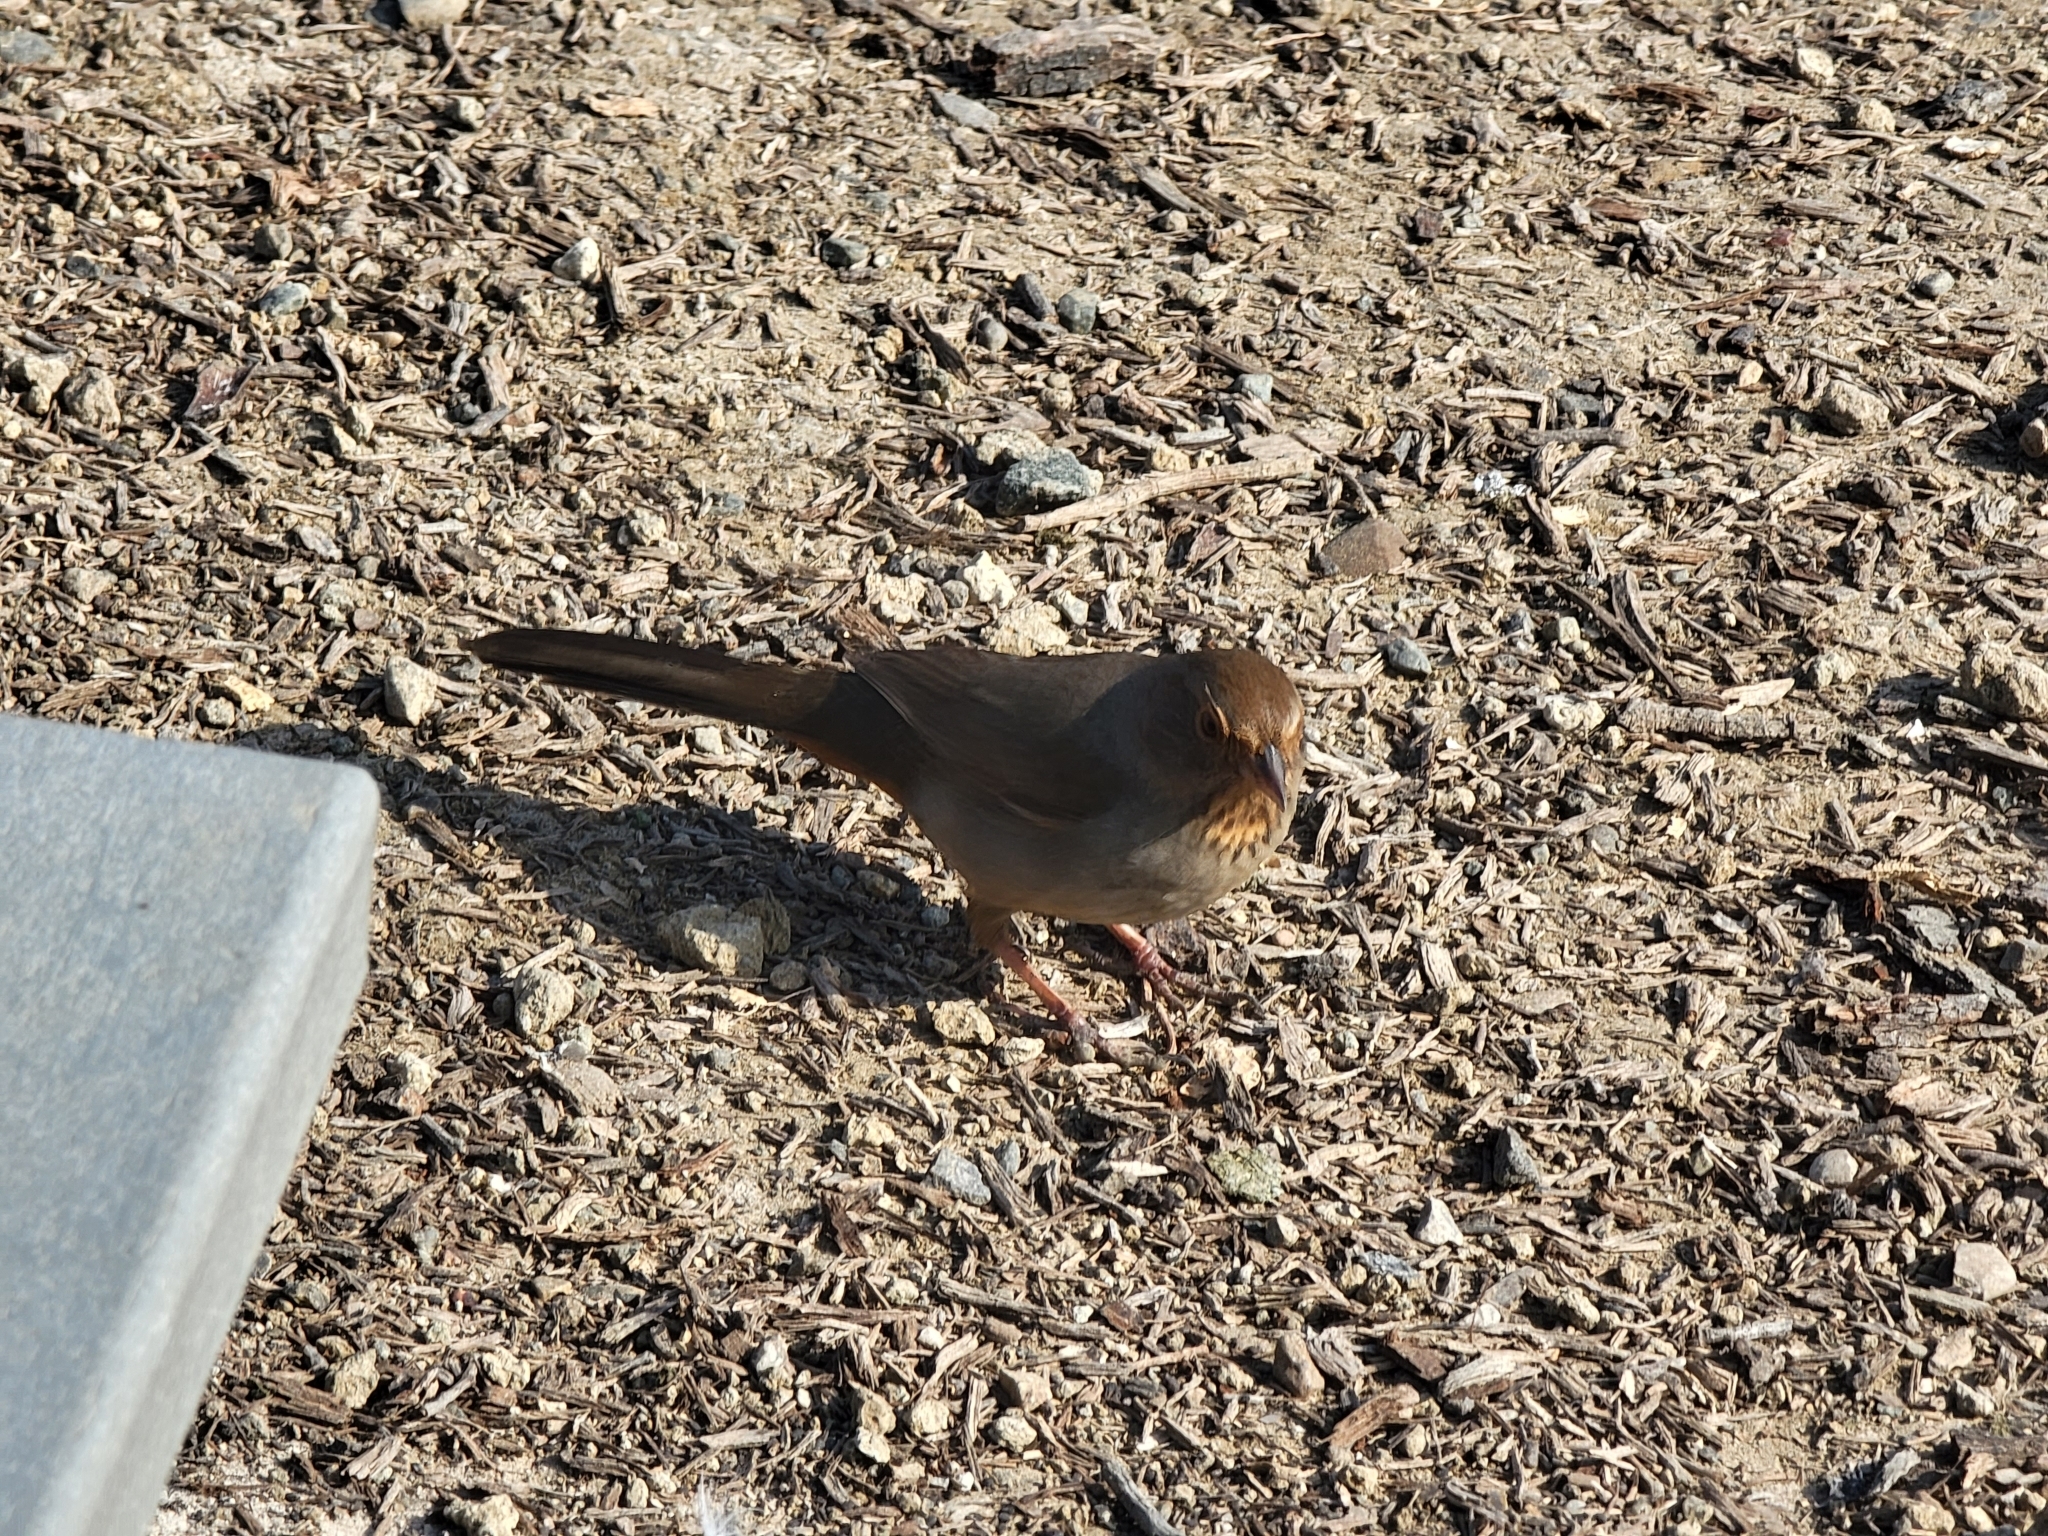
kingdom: Animalia
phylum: Chordata
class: Aves
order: Passeriformes
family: Passerellidae
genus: Melozone
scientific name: Melozone crissalis
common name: California towhee
